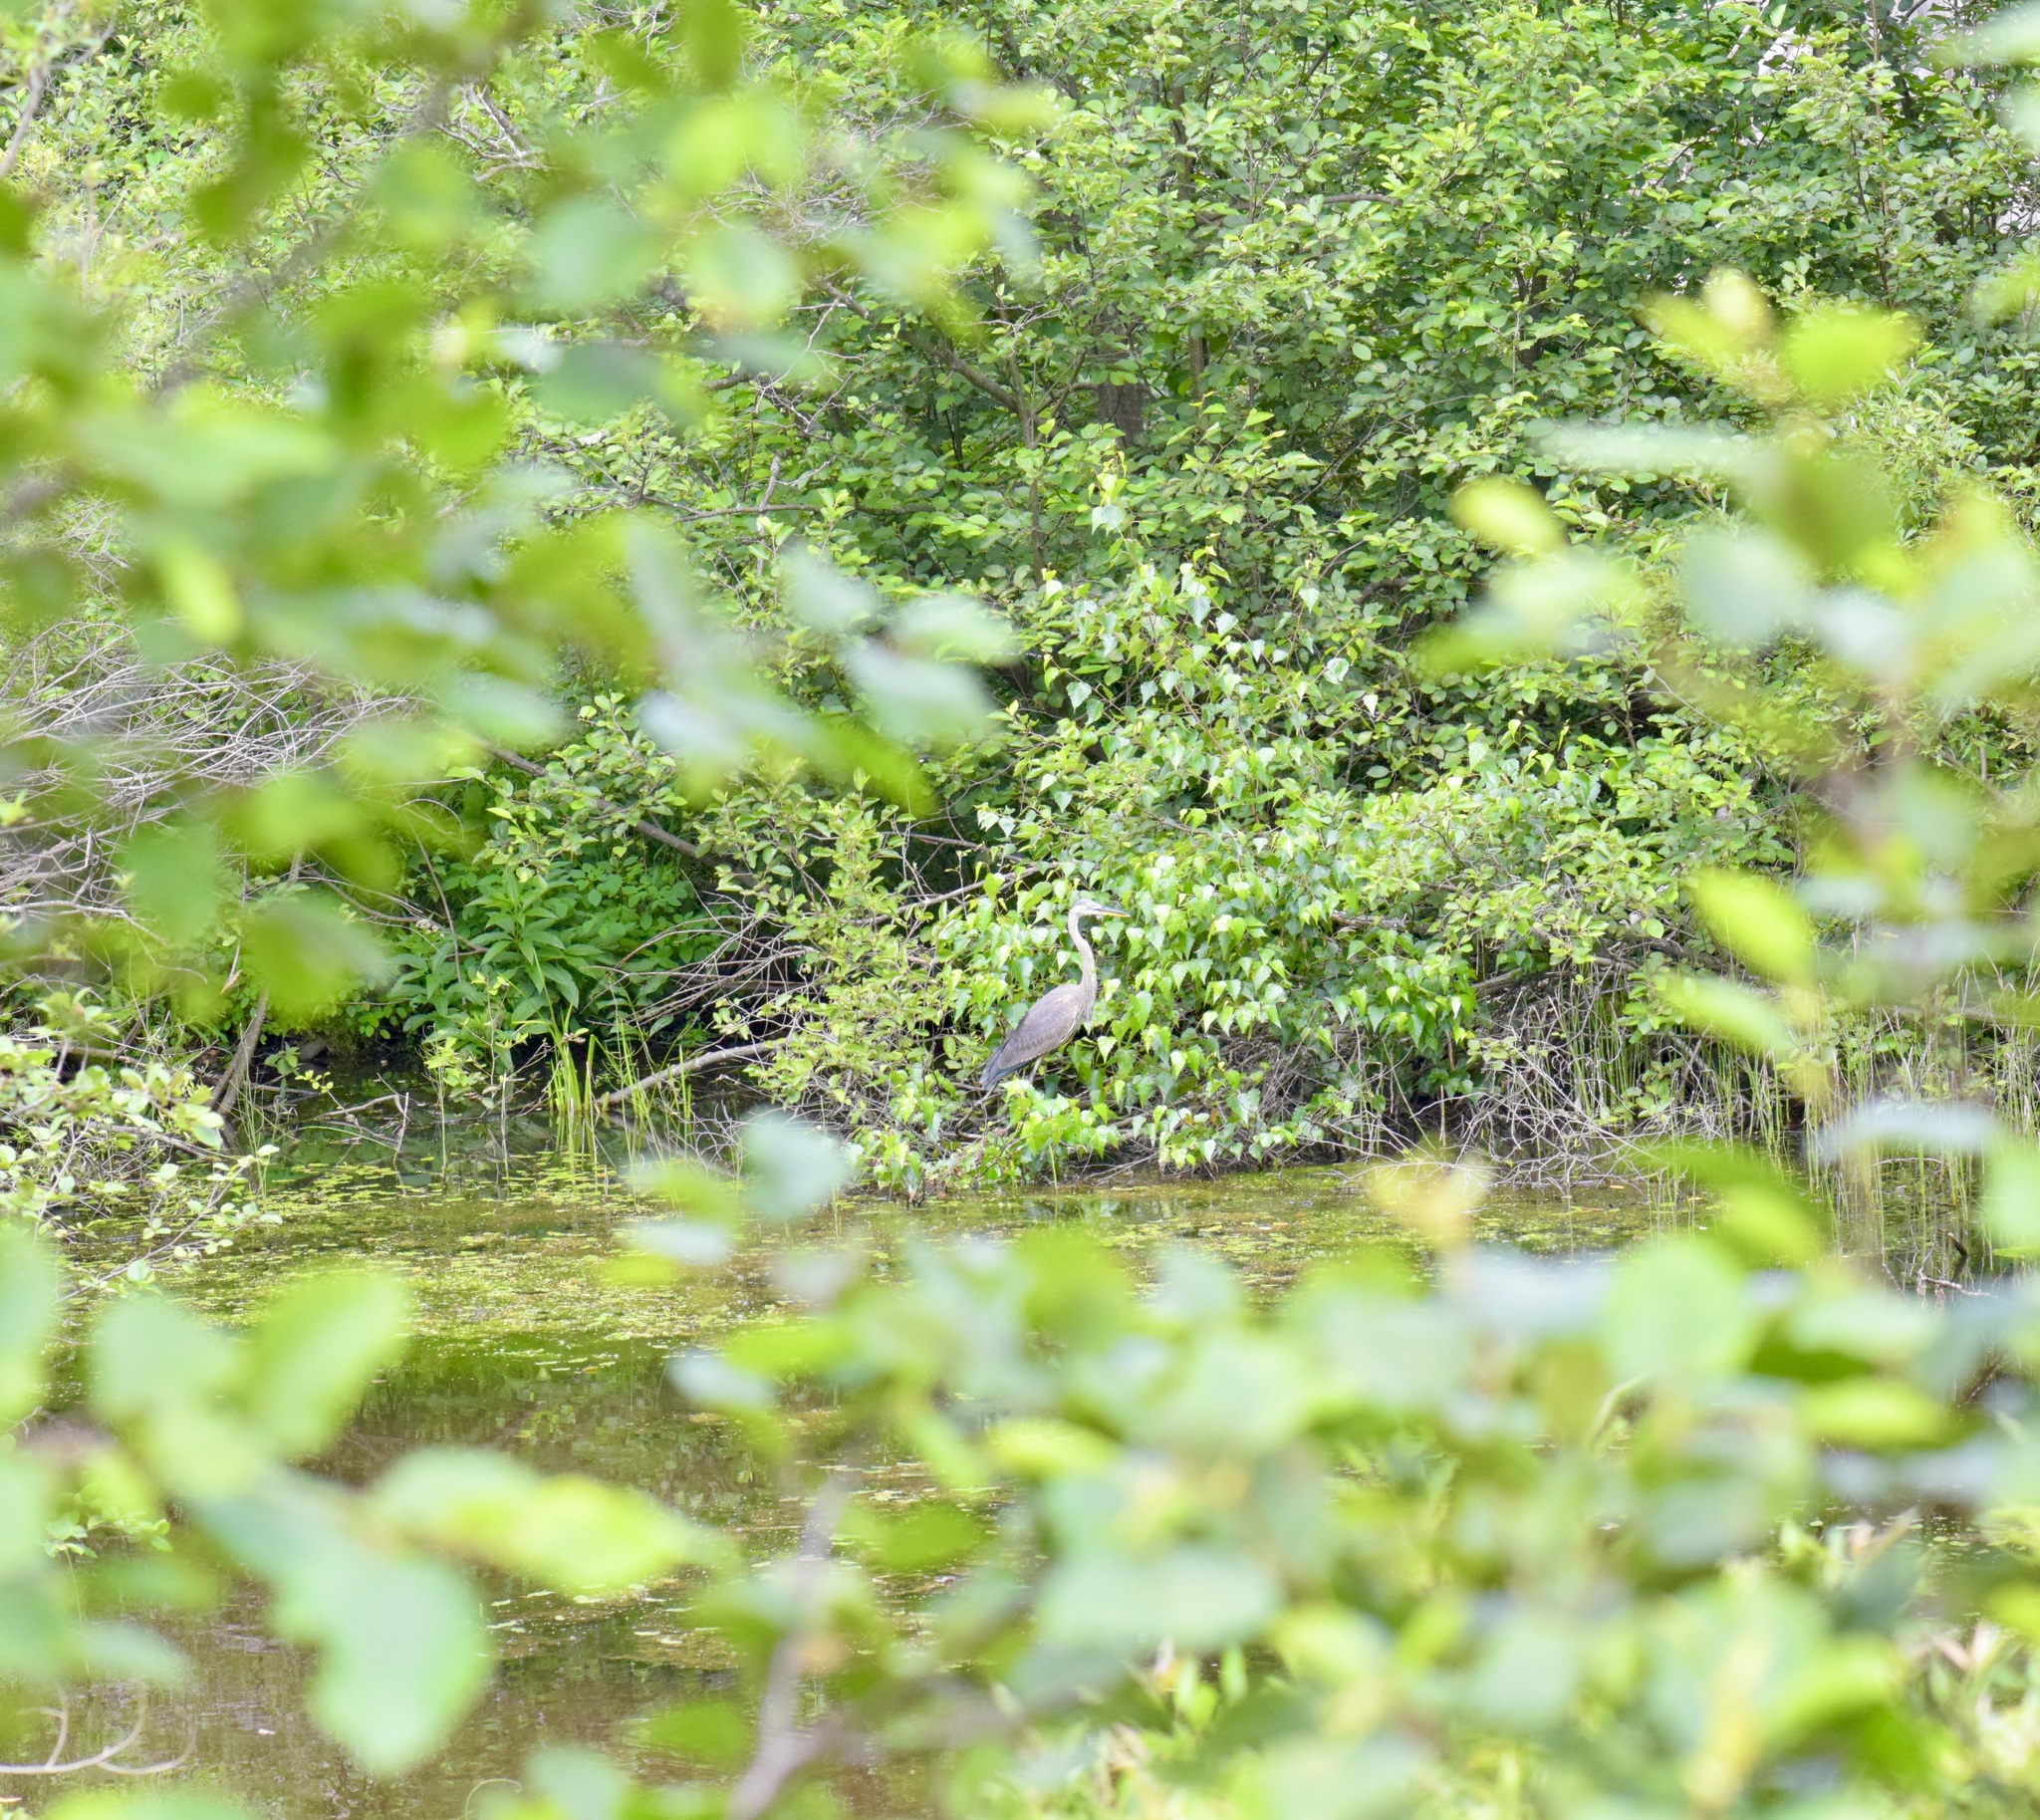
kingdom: Animalia
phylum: Chordata
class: Aves
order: Pelecaniformes
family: Ardeidae
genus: Ardea
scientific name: Ardea herodias
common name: Great blue heron
